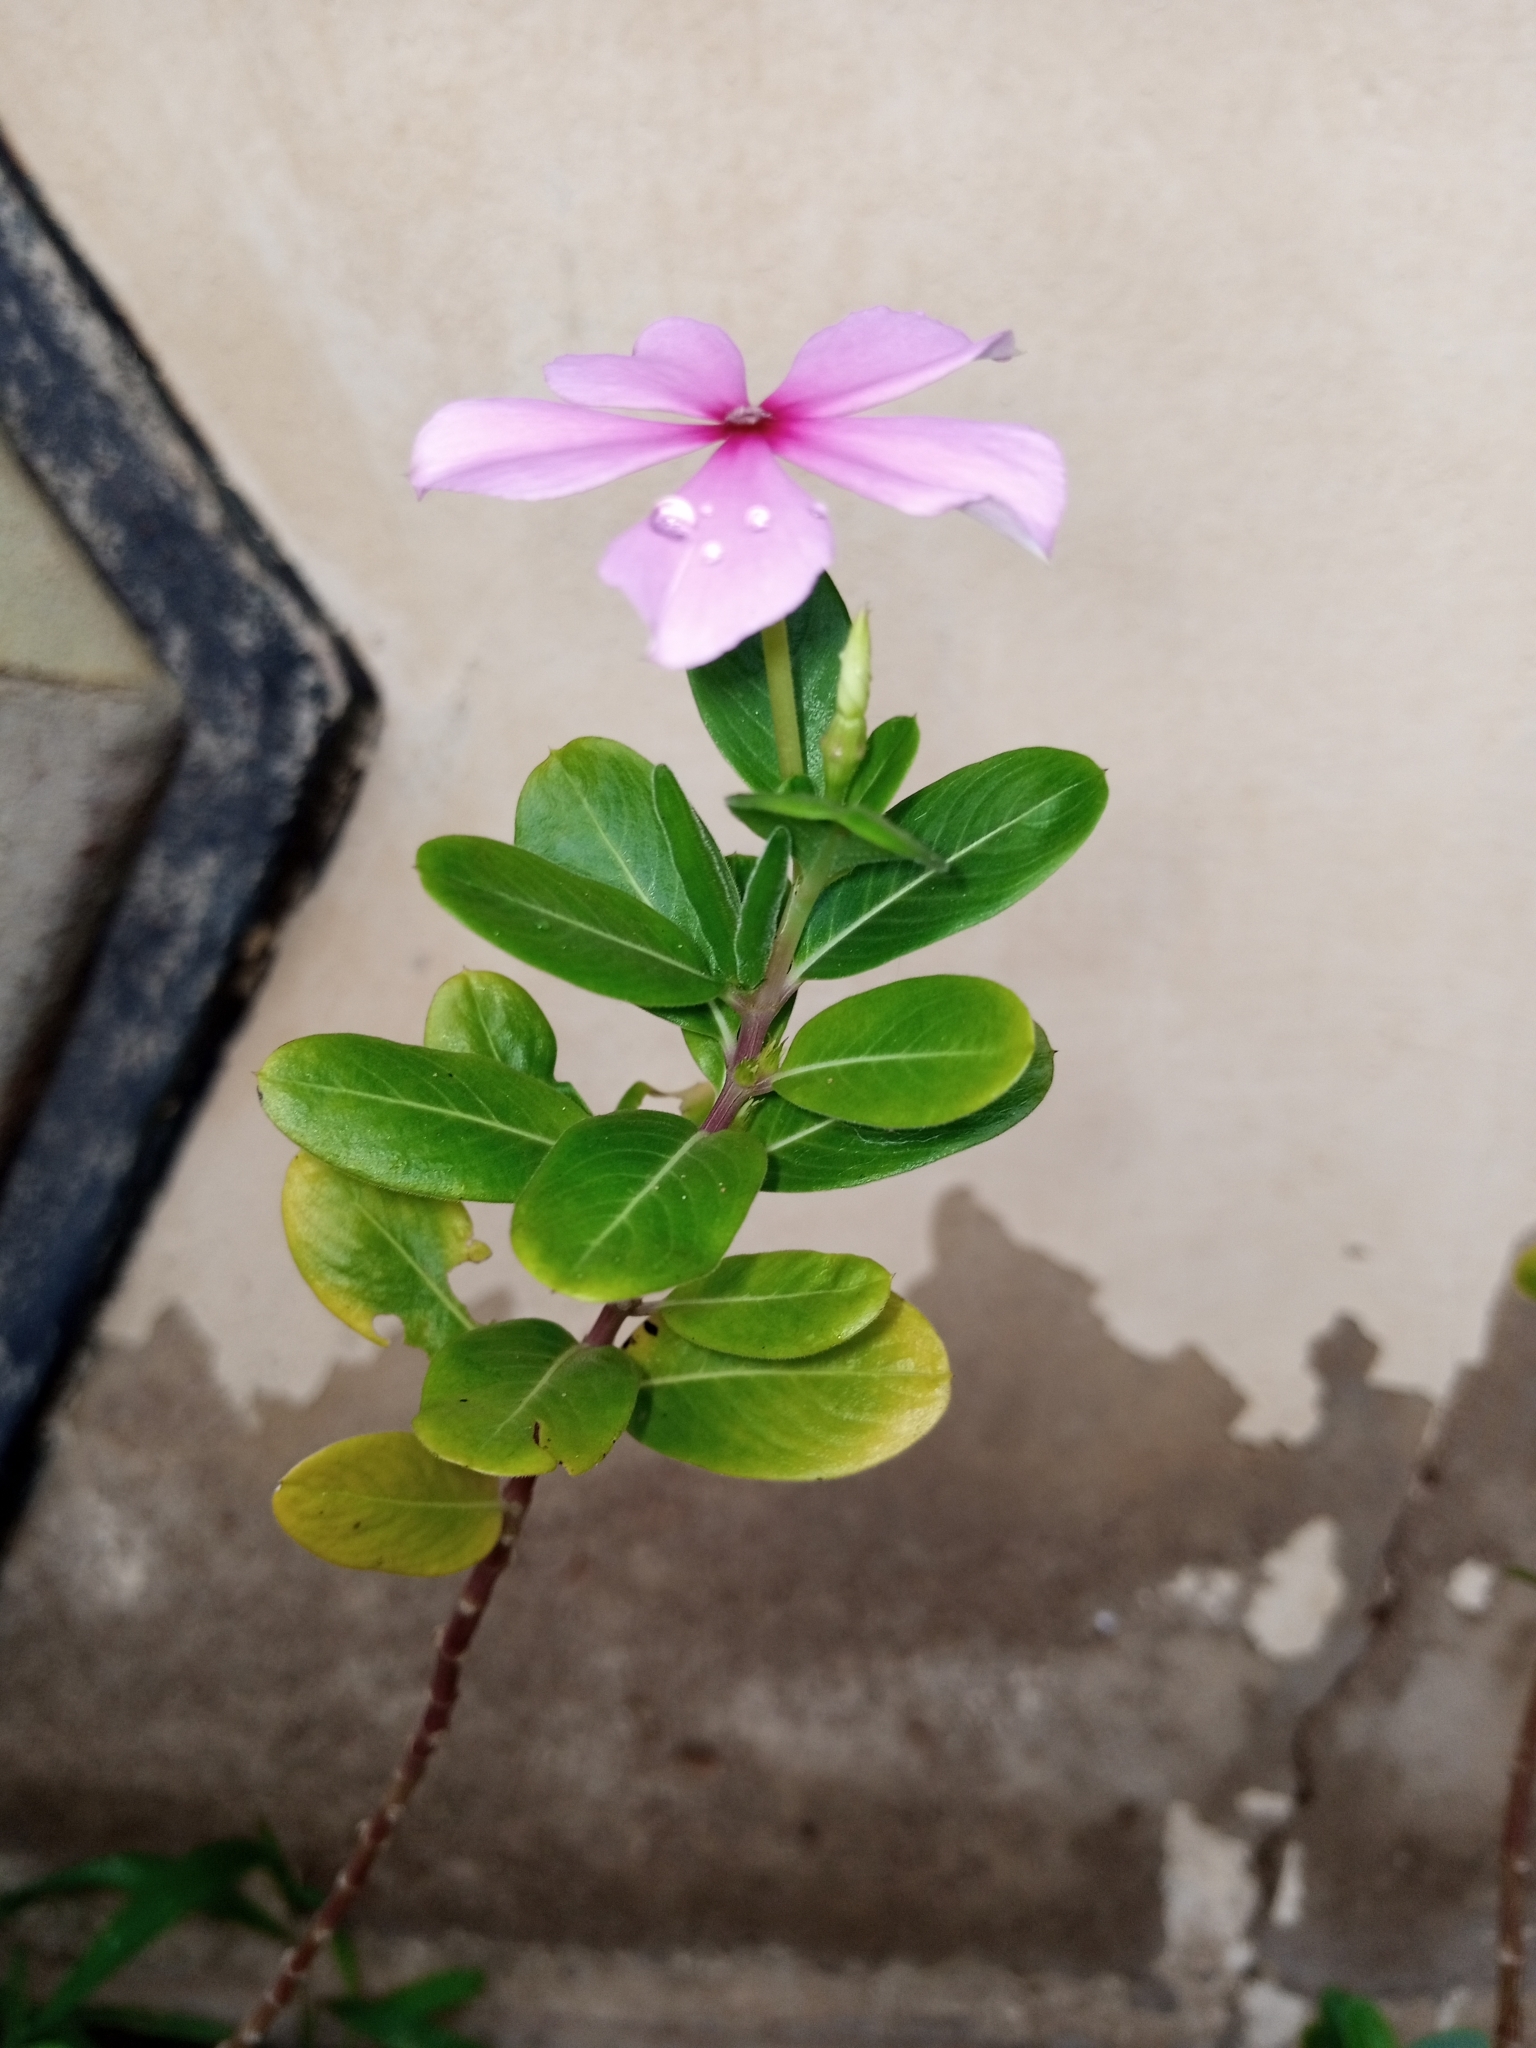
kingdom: Plantae
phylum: Tracheophyta
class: Magnoliopsida
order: Gentianales
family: Apocynaceae
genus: Catharanthus
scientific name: Catharanthus roseus
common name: Madagascar periwinkle
